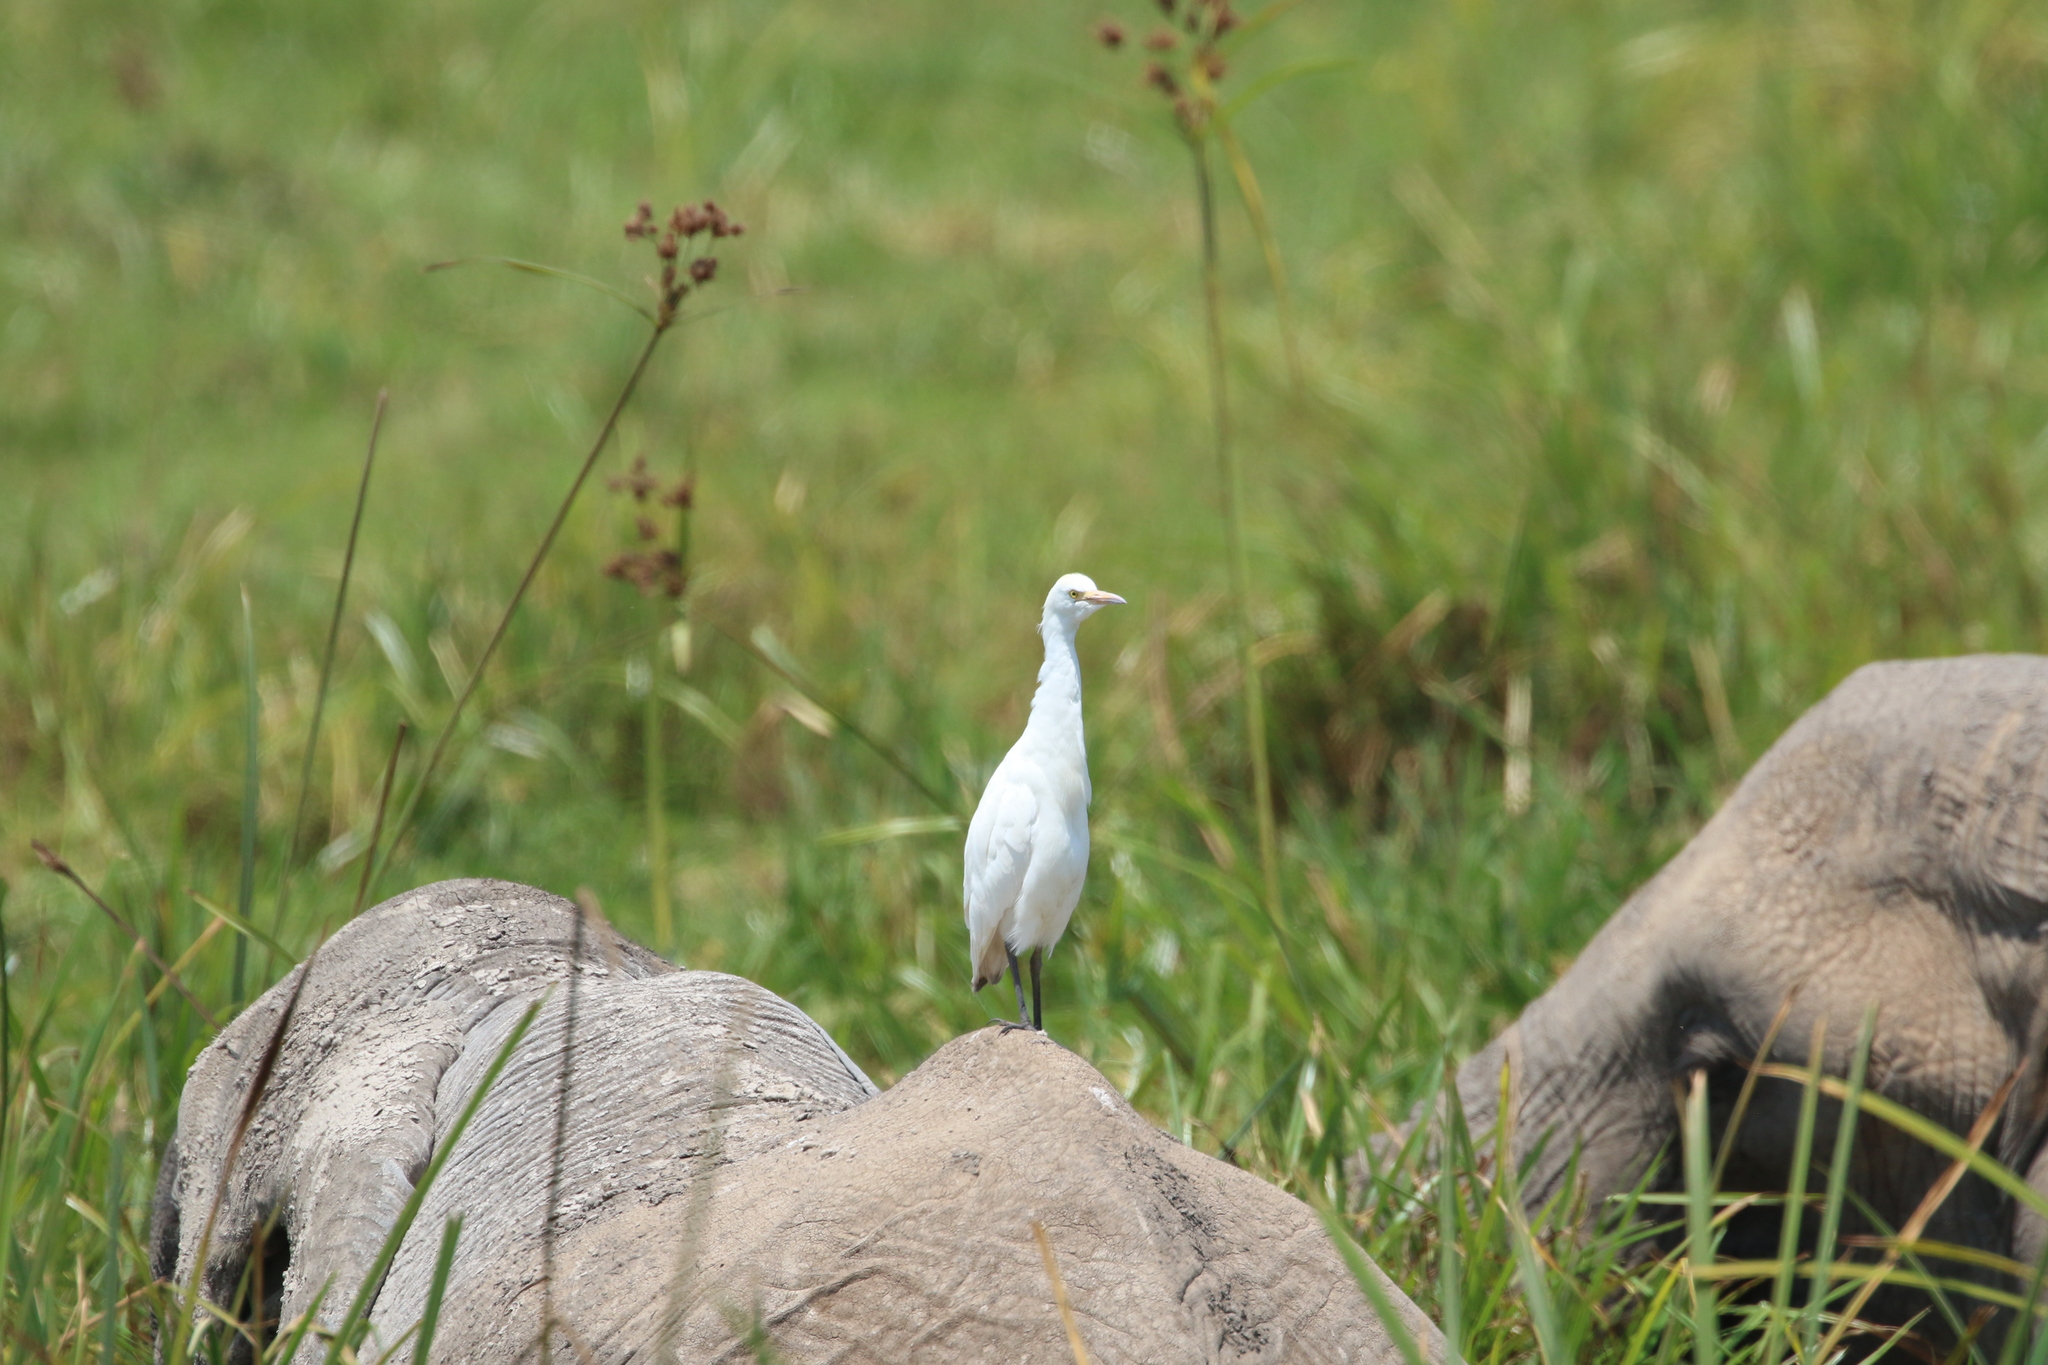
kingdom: Animalia
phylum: Chordata
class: Aves
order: Pelecaniformes
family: Ardeidae
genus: Bubulcus
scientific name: Bubulcus ibis
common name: Cattle egret
